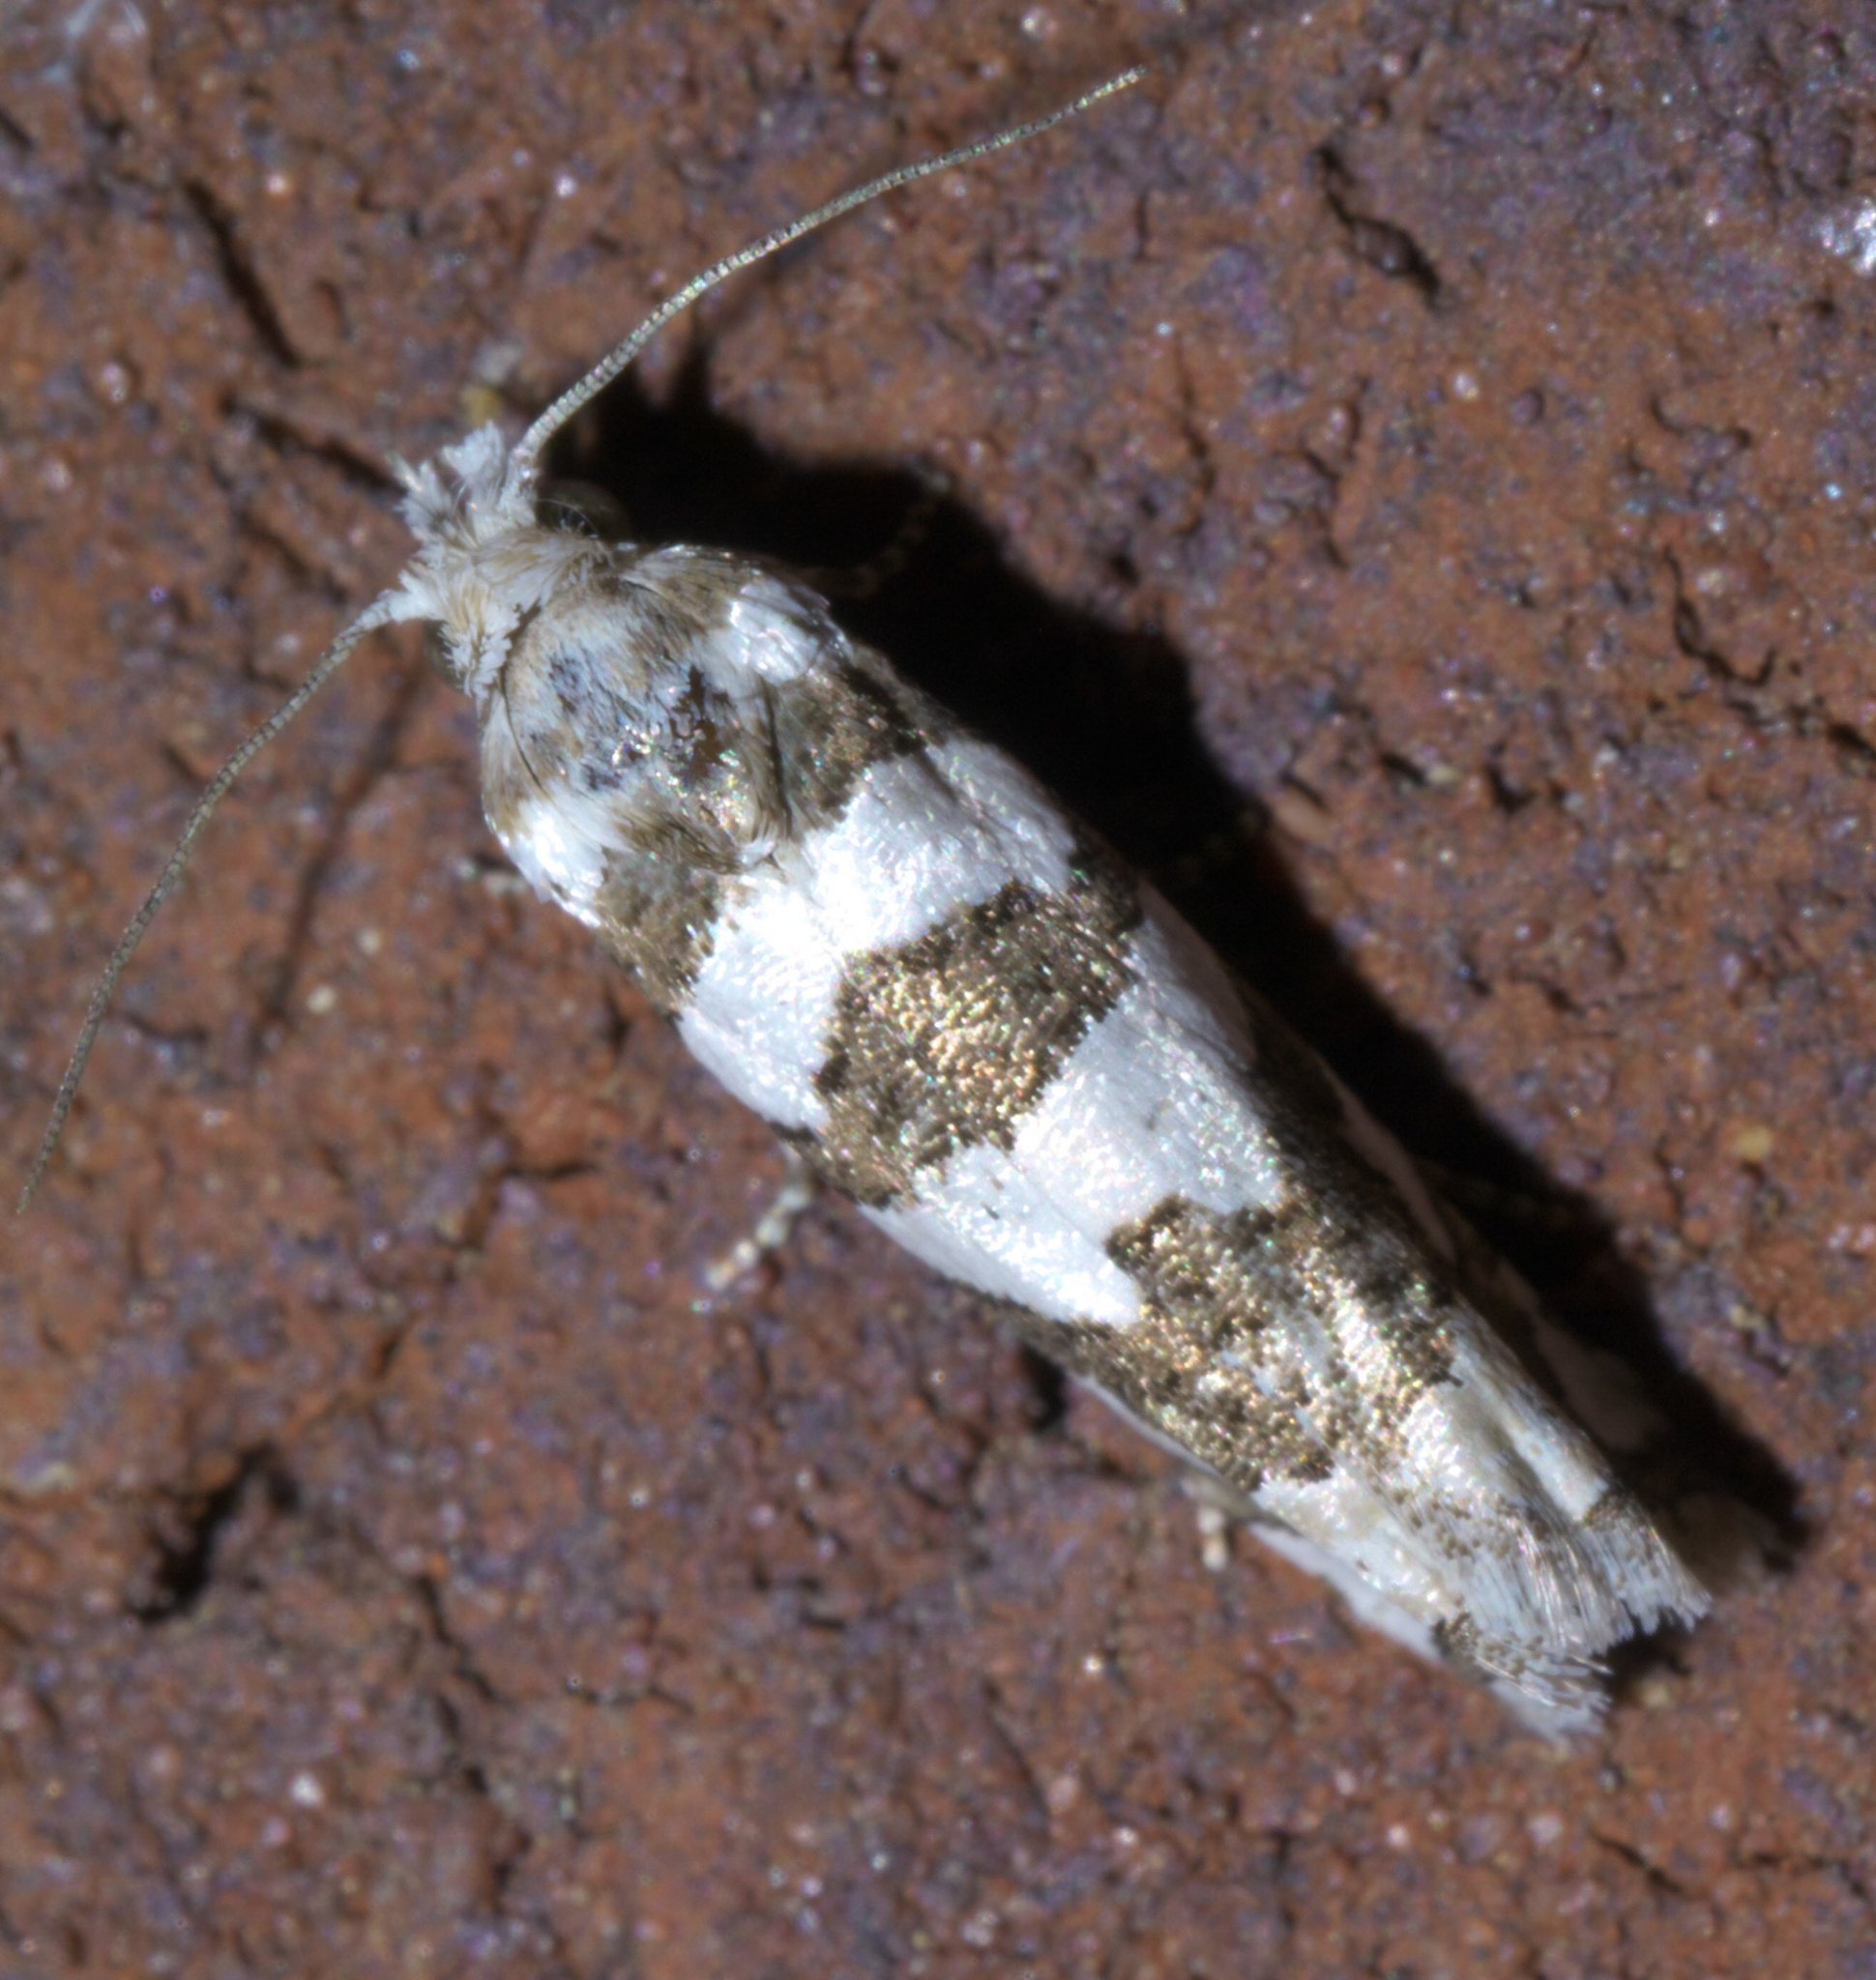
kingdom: Animalia
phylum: Arthropoda
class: Insecta
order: Lepidoptera
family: Tortricidae
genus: Pelochrista
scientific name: Pelochrista robinsonana
